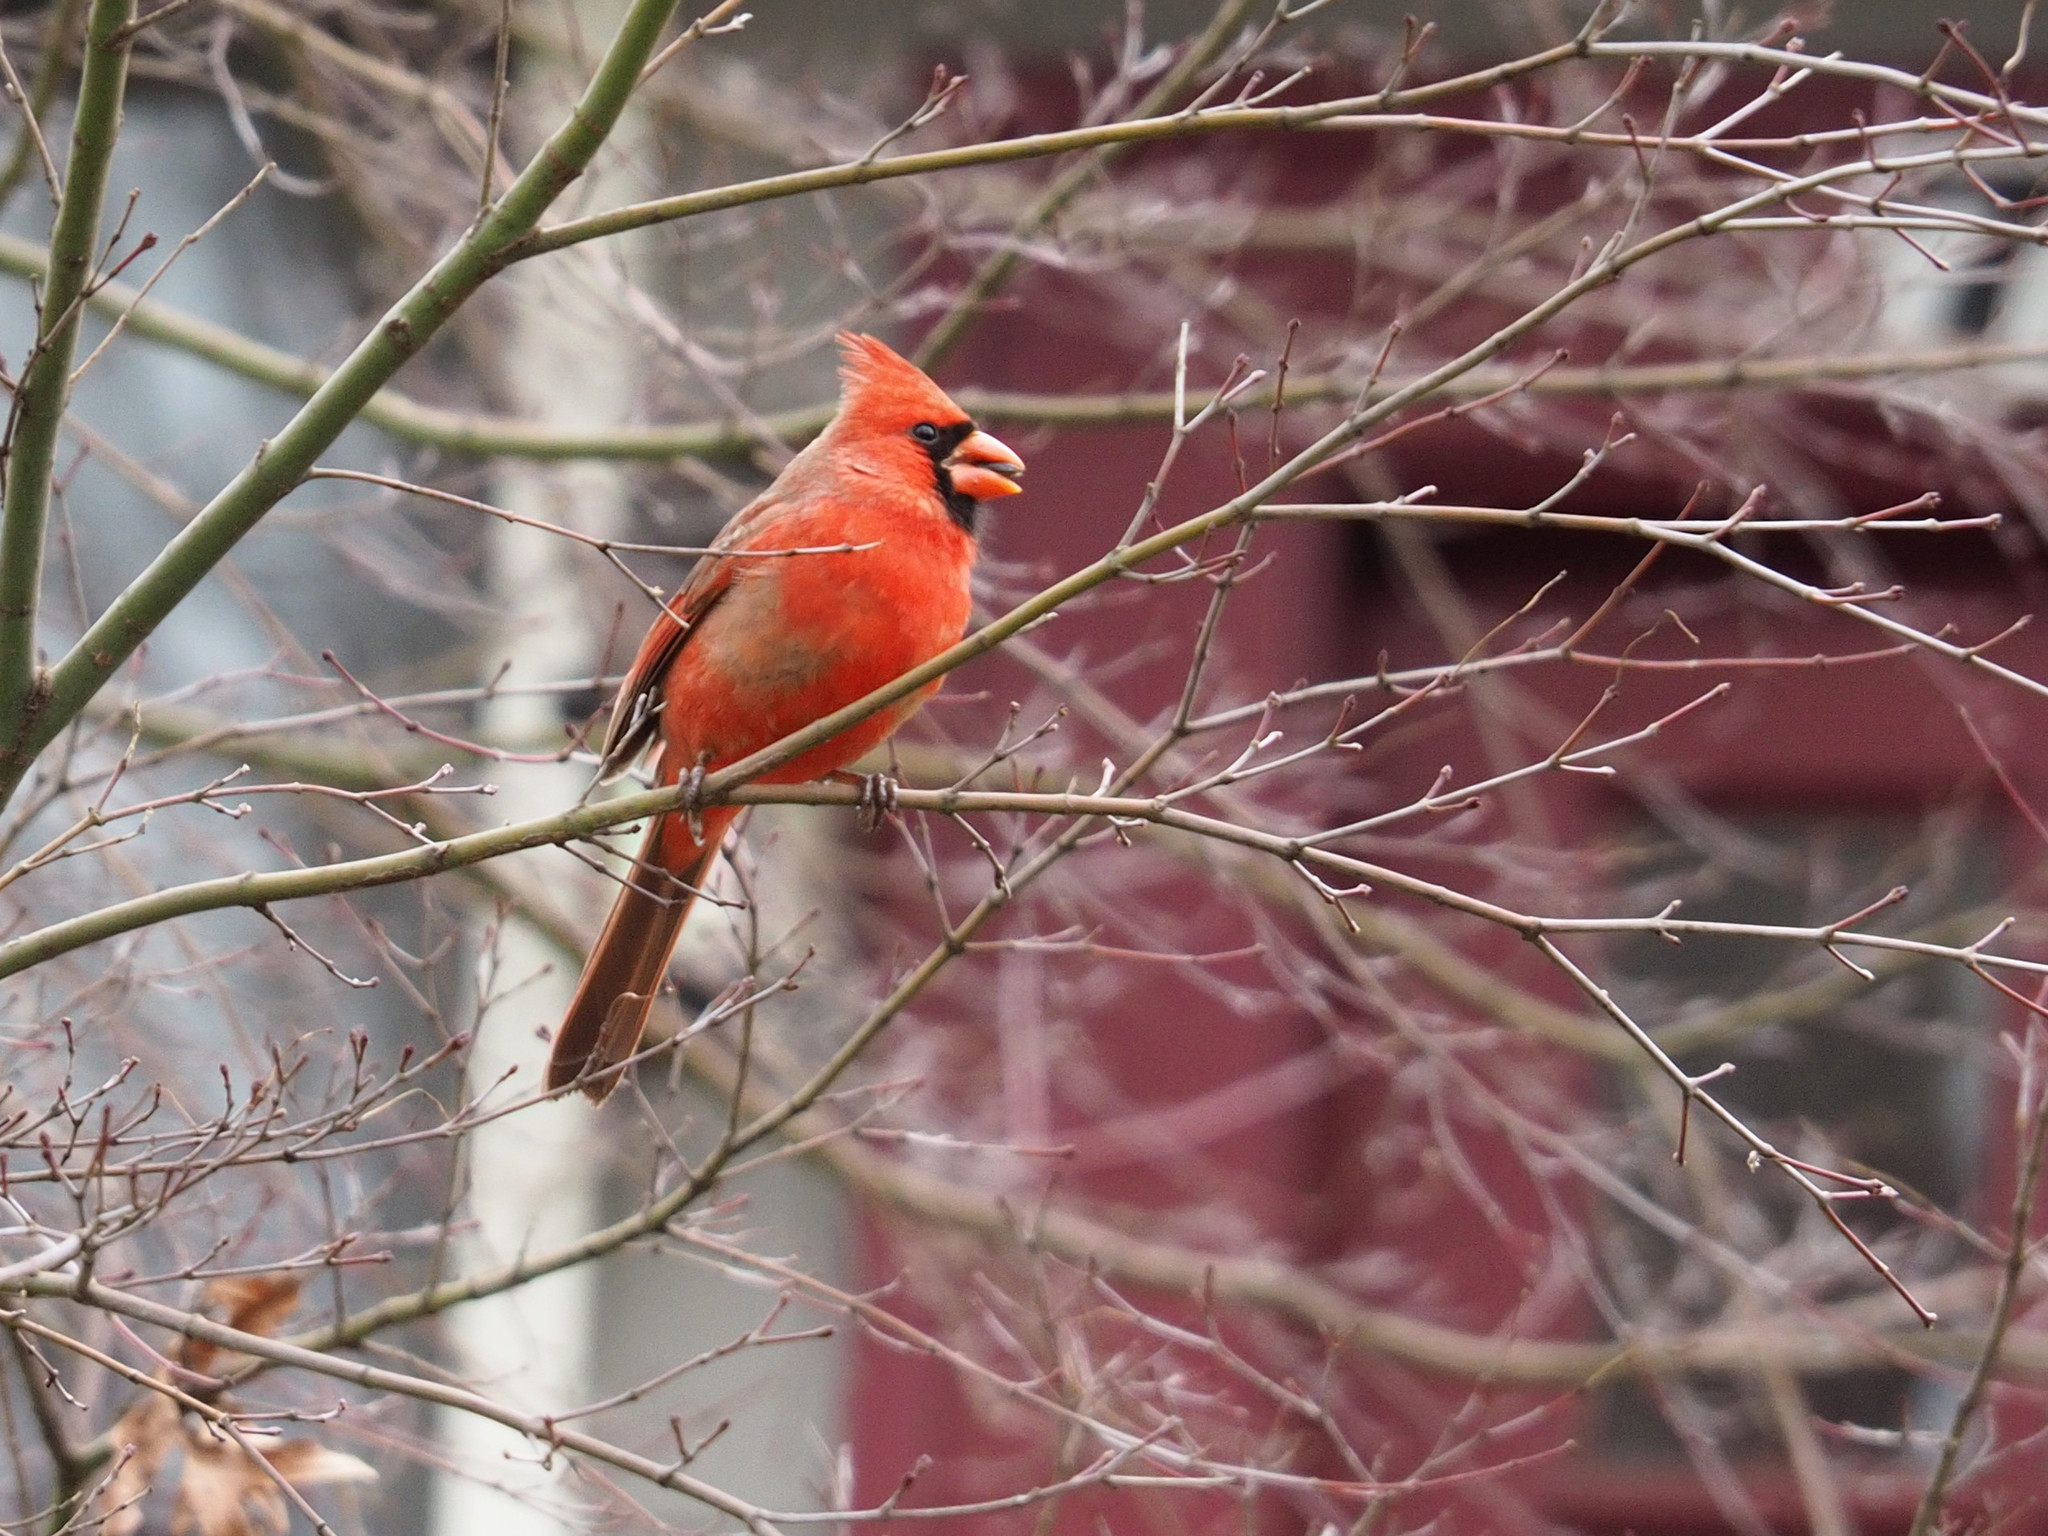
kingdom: Animalia
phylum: Chordata
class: Aves
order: Passeriformes
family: Cardinalidae
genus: Cardinalis
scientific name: Cardinalis cardinalis
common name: Northern cardinal
